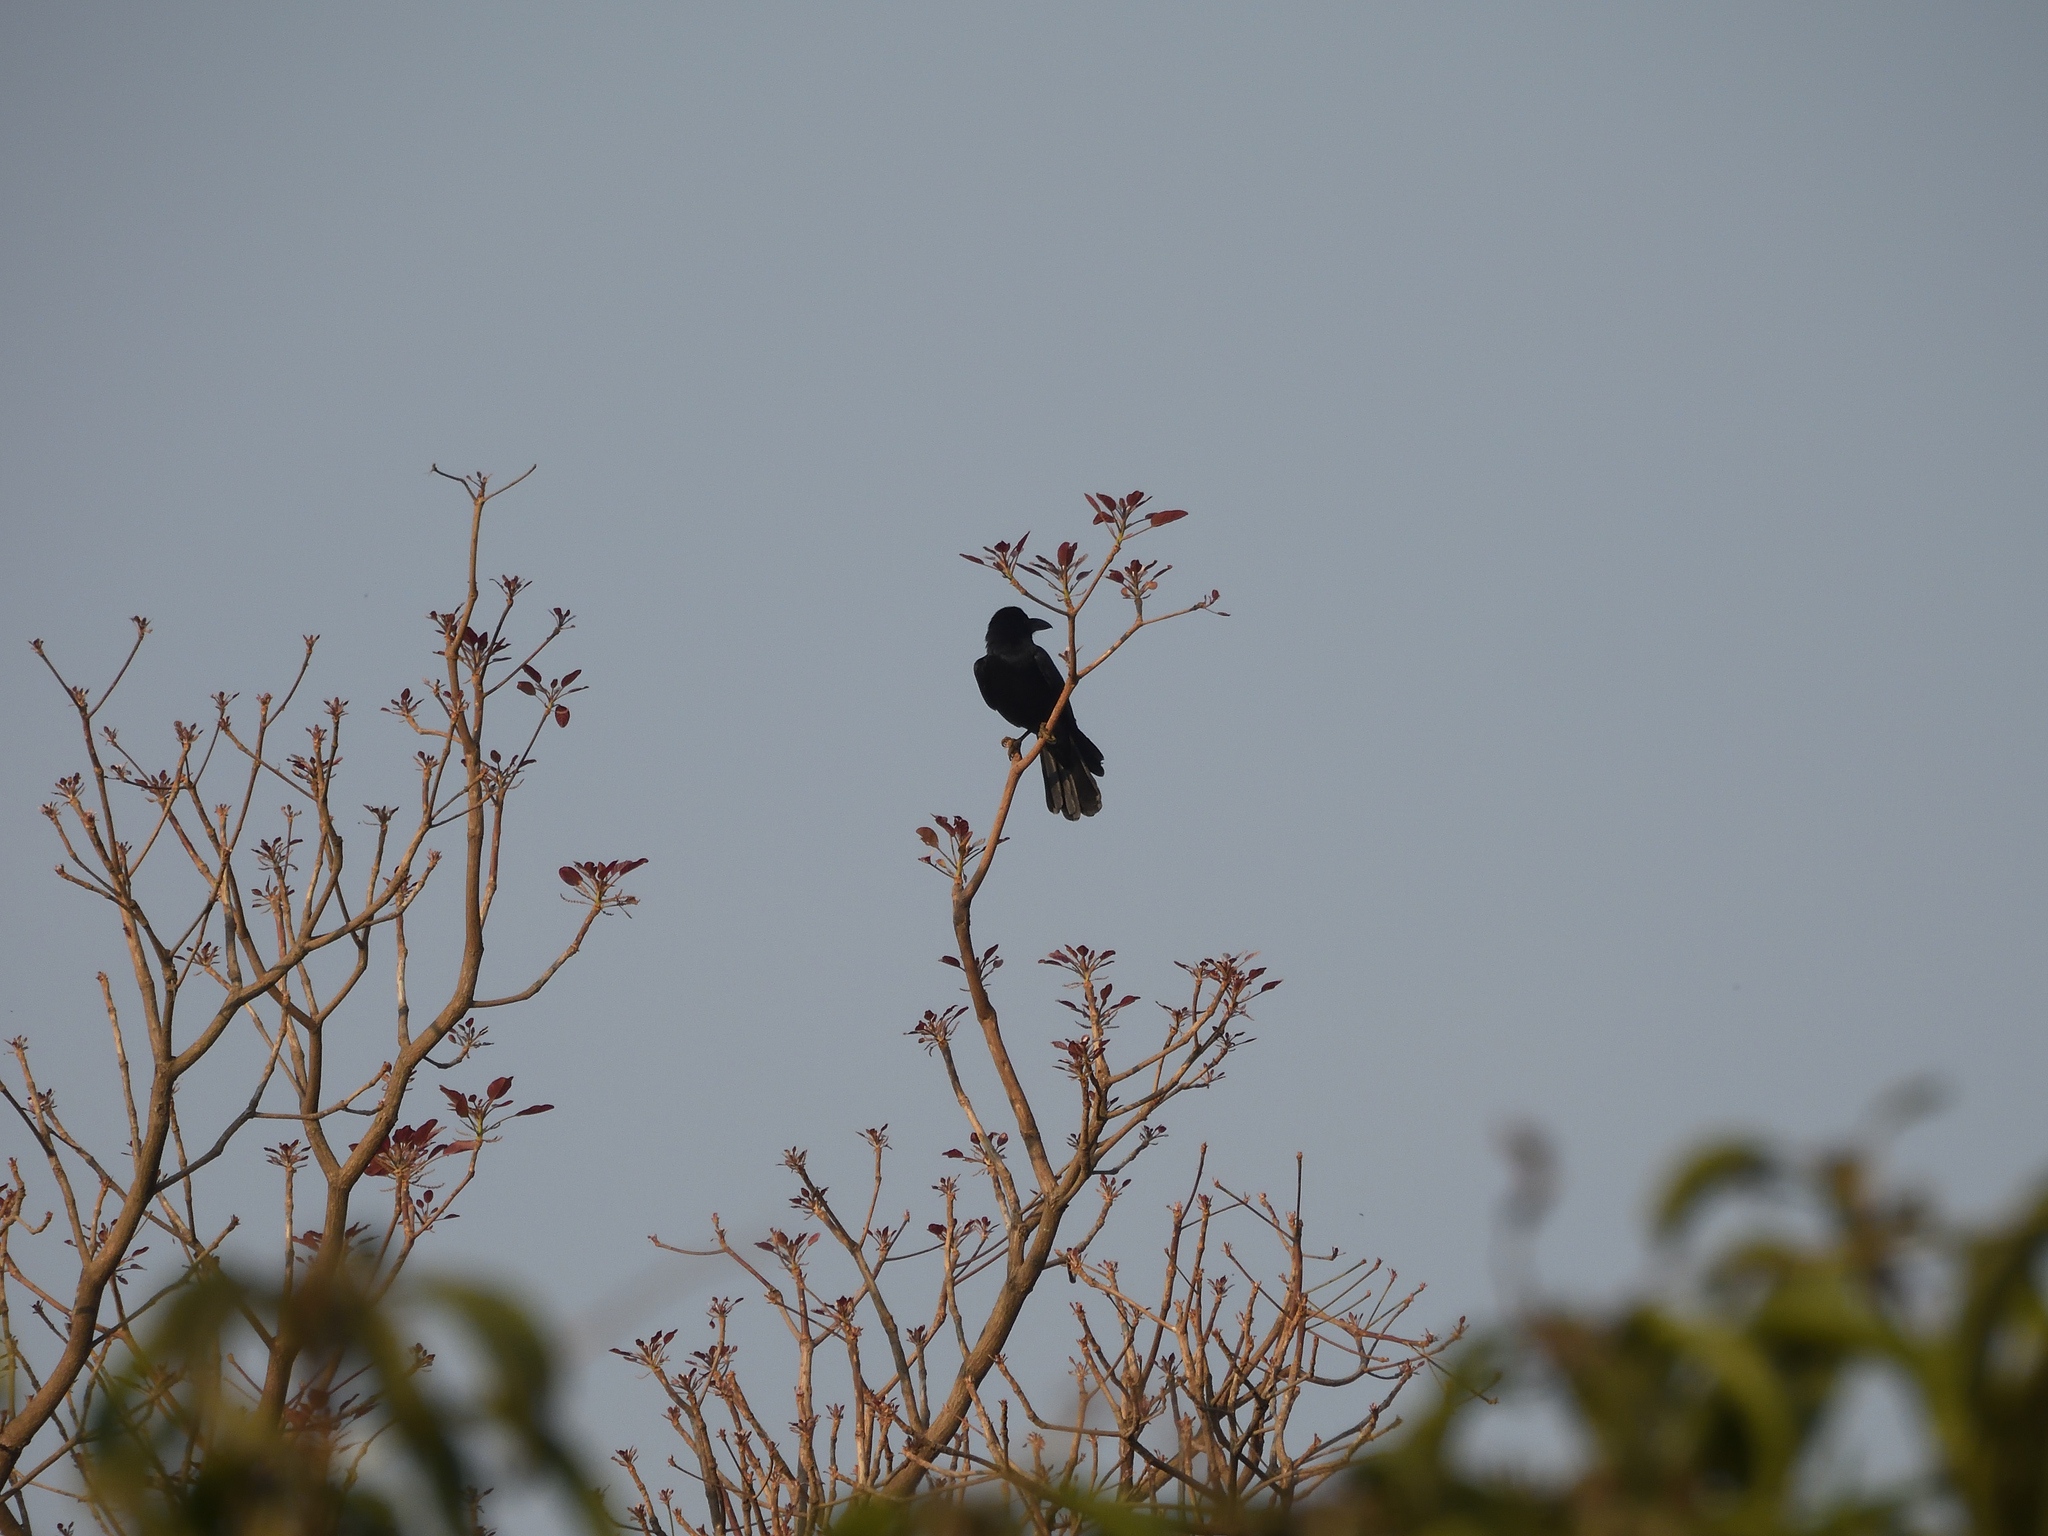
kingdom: Animalia
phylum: Chordata
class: Aves
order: Passeriformes
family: Corvidae
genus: Corvus
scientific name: Corvus macrorhynchos
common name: Large-billed crow
